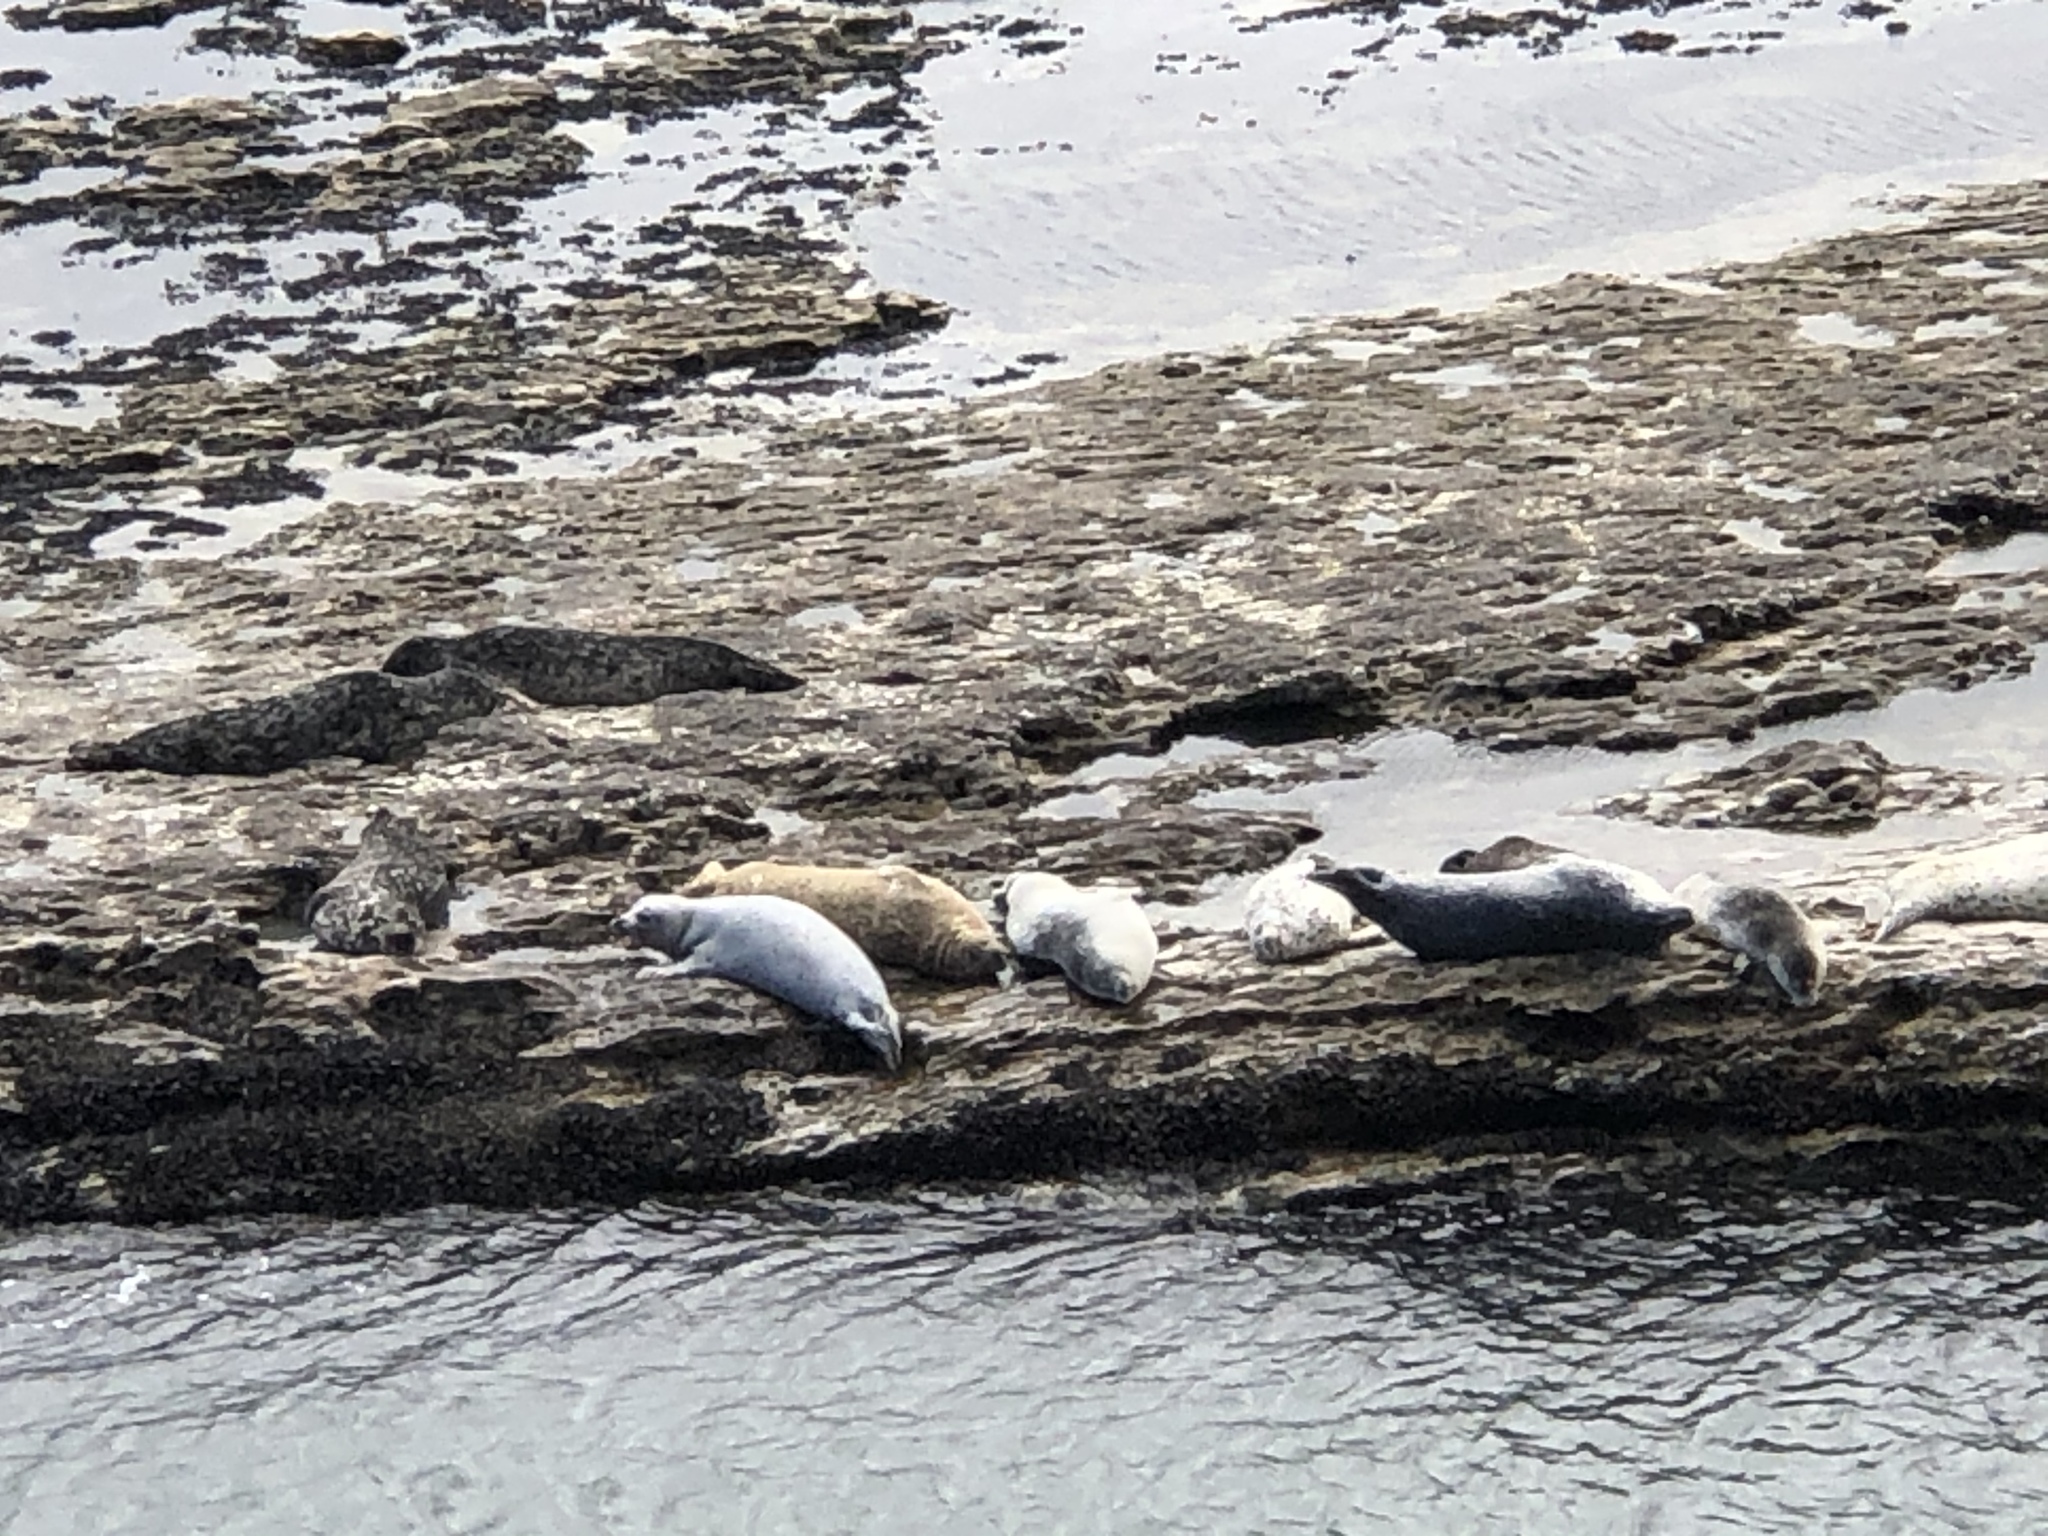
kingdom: Animalia
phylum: Chordata
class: Mammalia
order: Carnivora
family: Phocidae
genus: Phoca
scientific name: Phoca vitulina
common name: Harbor seal
